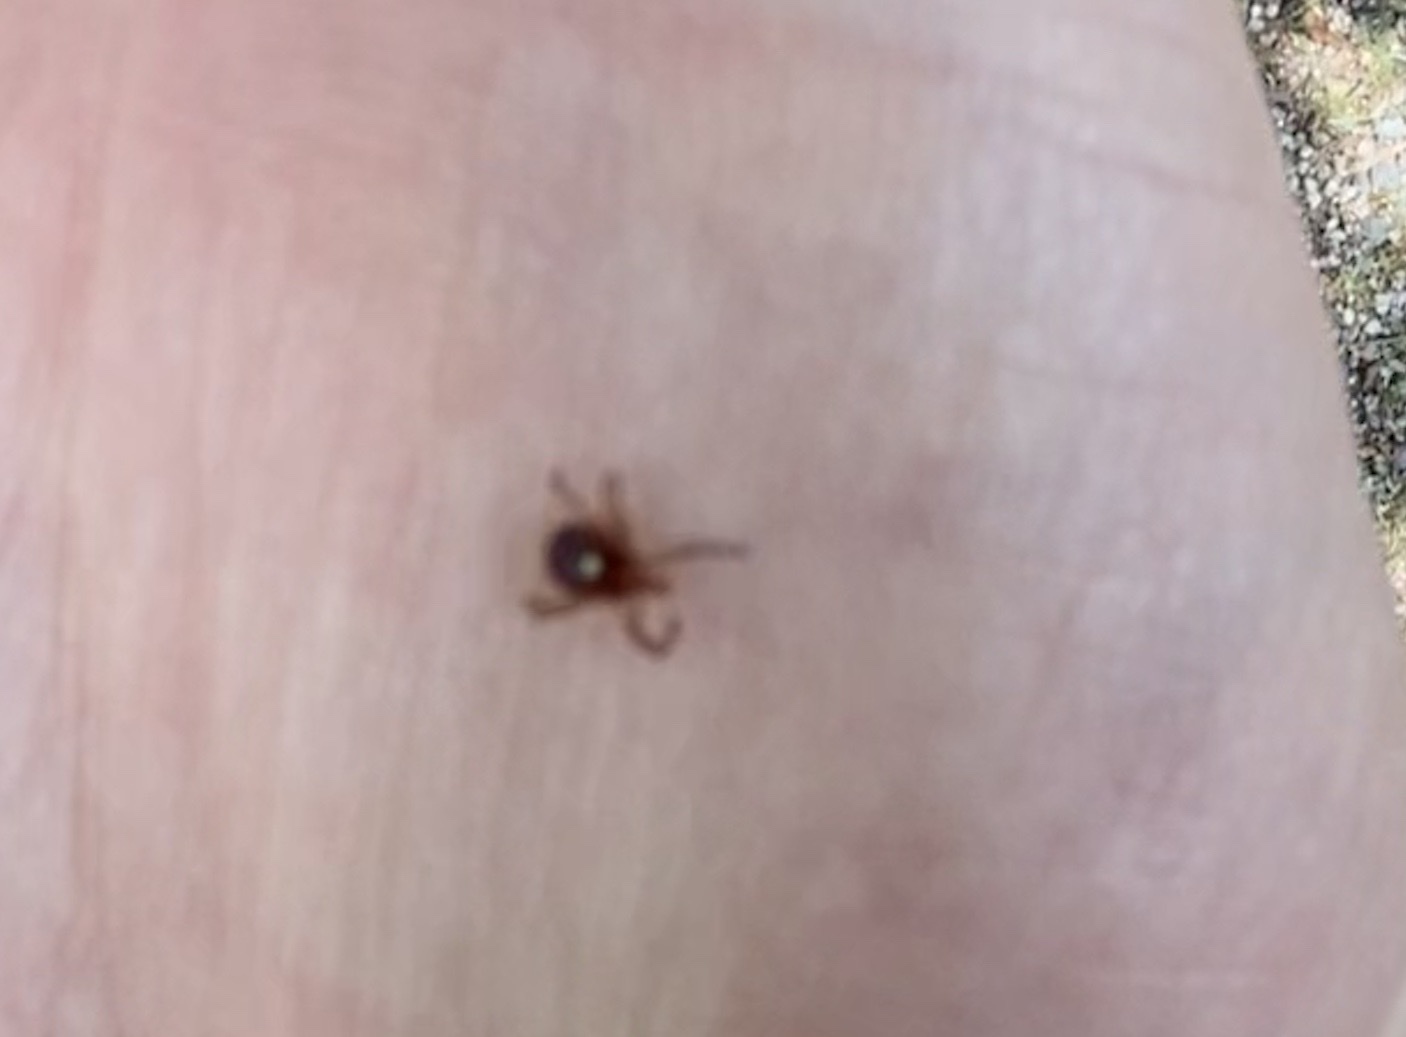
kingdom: Animalia
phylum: Arthropoda
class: Arachnida
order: Ixodida
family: Ixodidae
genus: Amblyomma
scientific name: Amblyomma americanum
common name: Lone star tick
